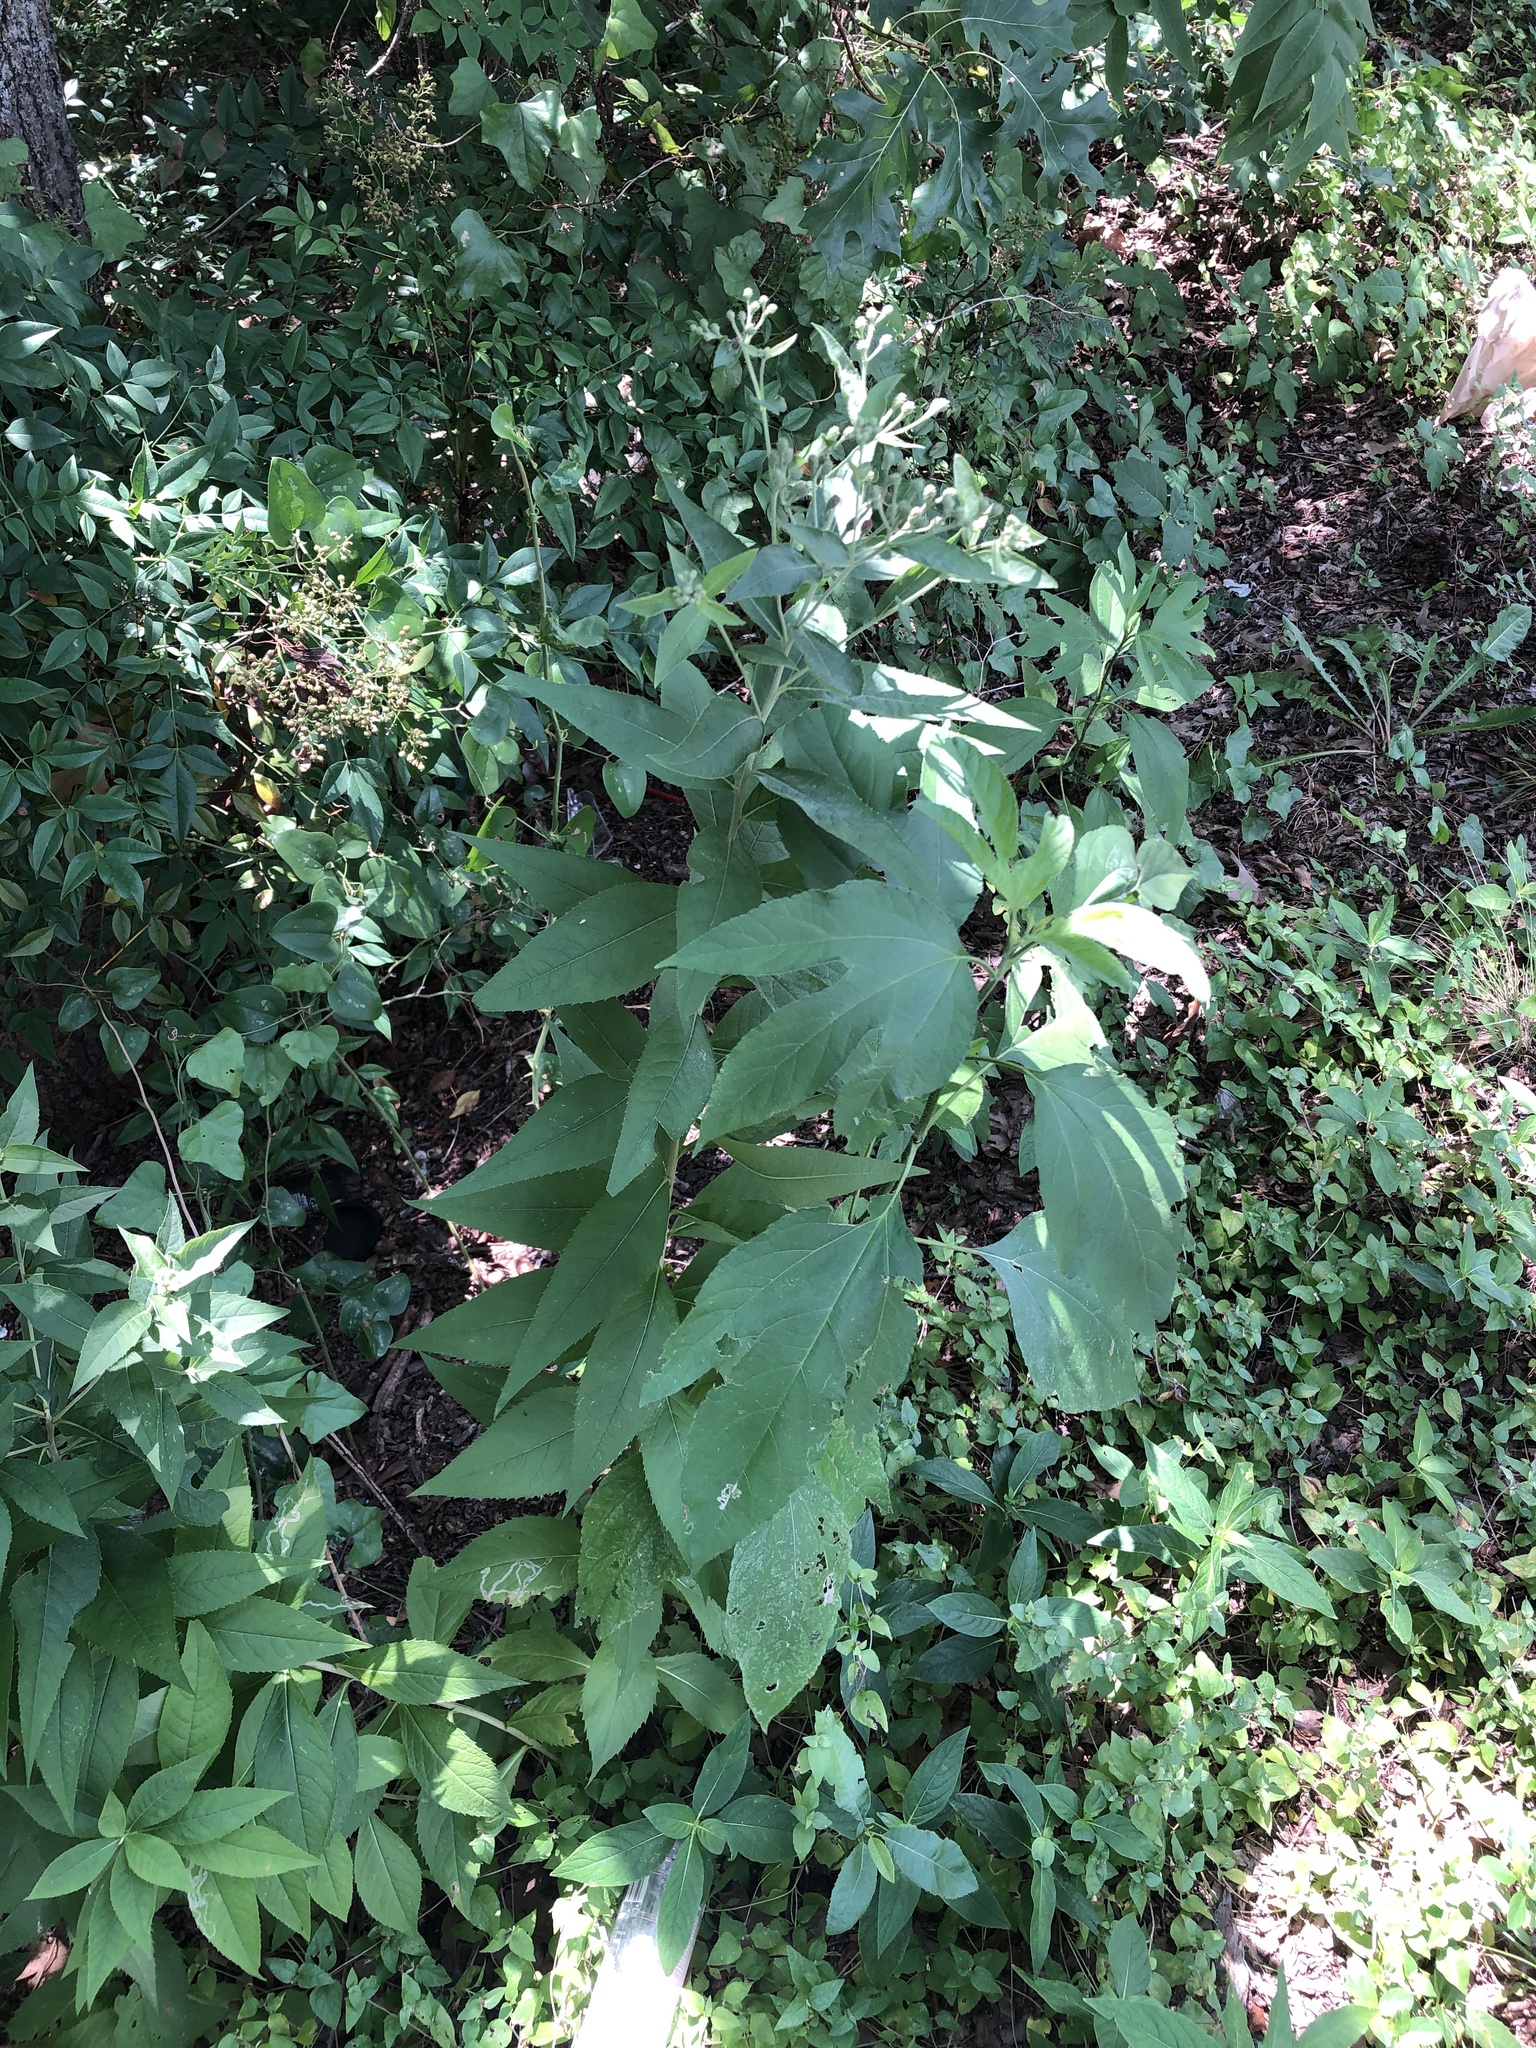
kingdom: Plantae
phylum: Tracheophyta
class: Magnoliopsida
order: Asterales
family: Asteraceae
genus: Vernonia
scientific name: Vernonia baldwinii
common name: Western ironweed
